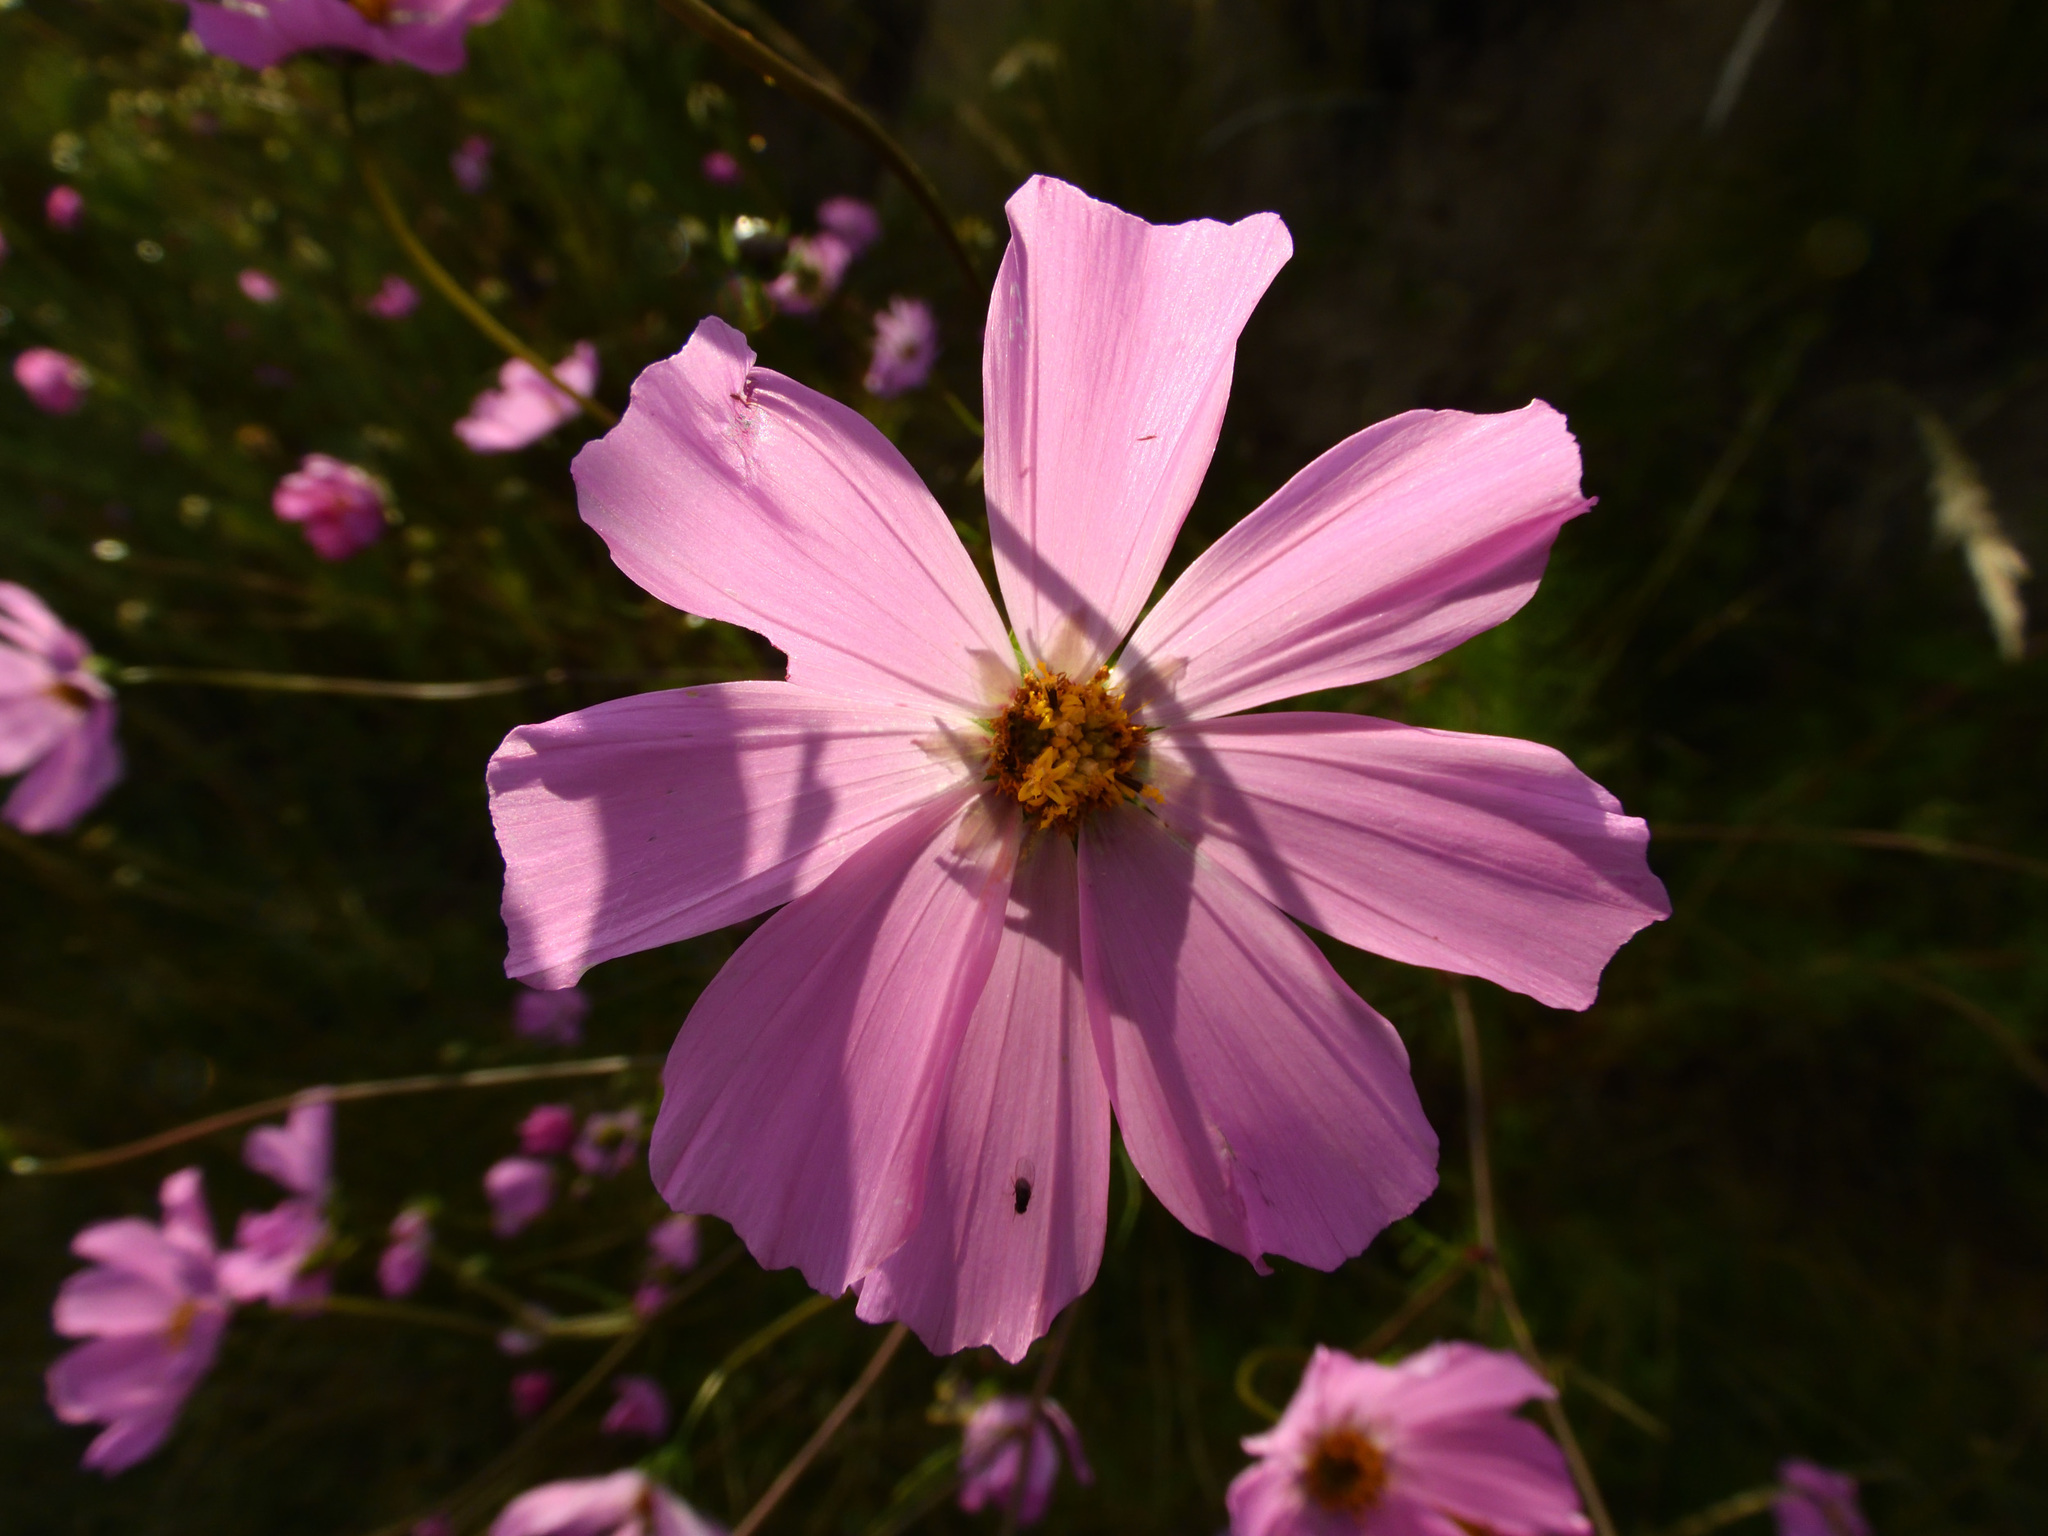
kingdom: Plantae
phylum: Tracheophyta
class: Magnoliopsida
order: Asterales
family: Asteraceae
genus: Cosmos
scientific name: Cosmos bipinnatus
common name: Garden cosmos
